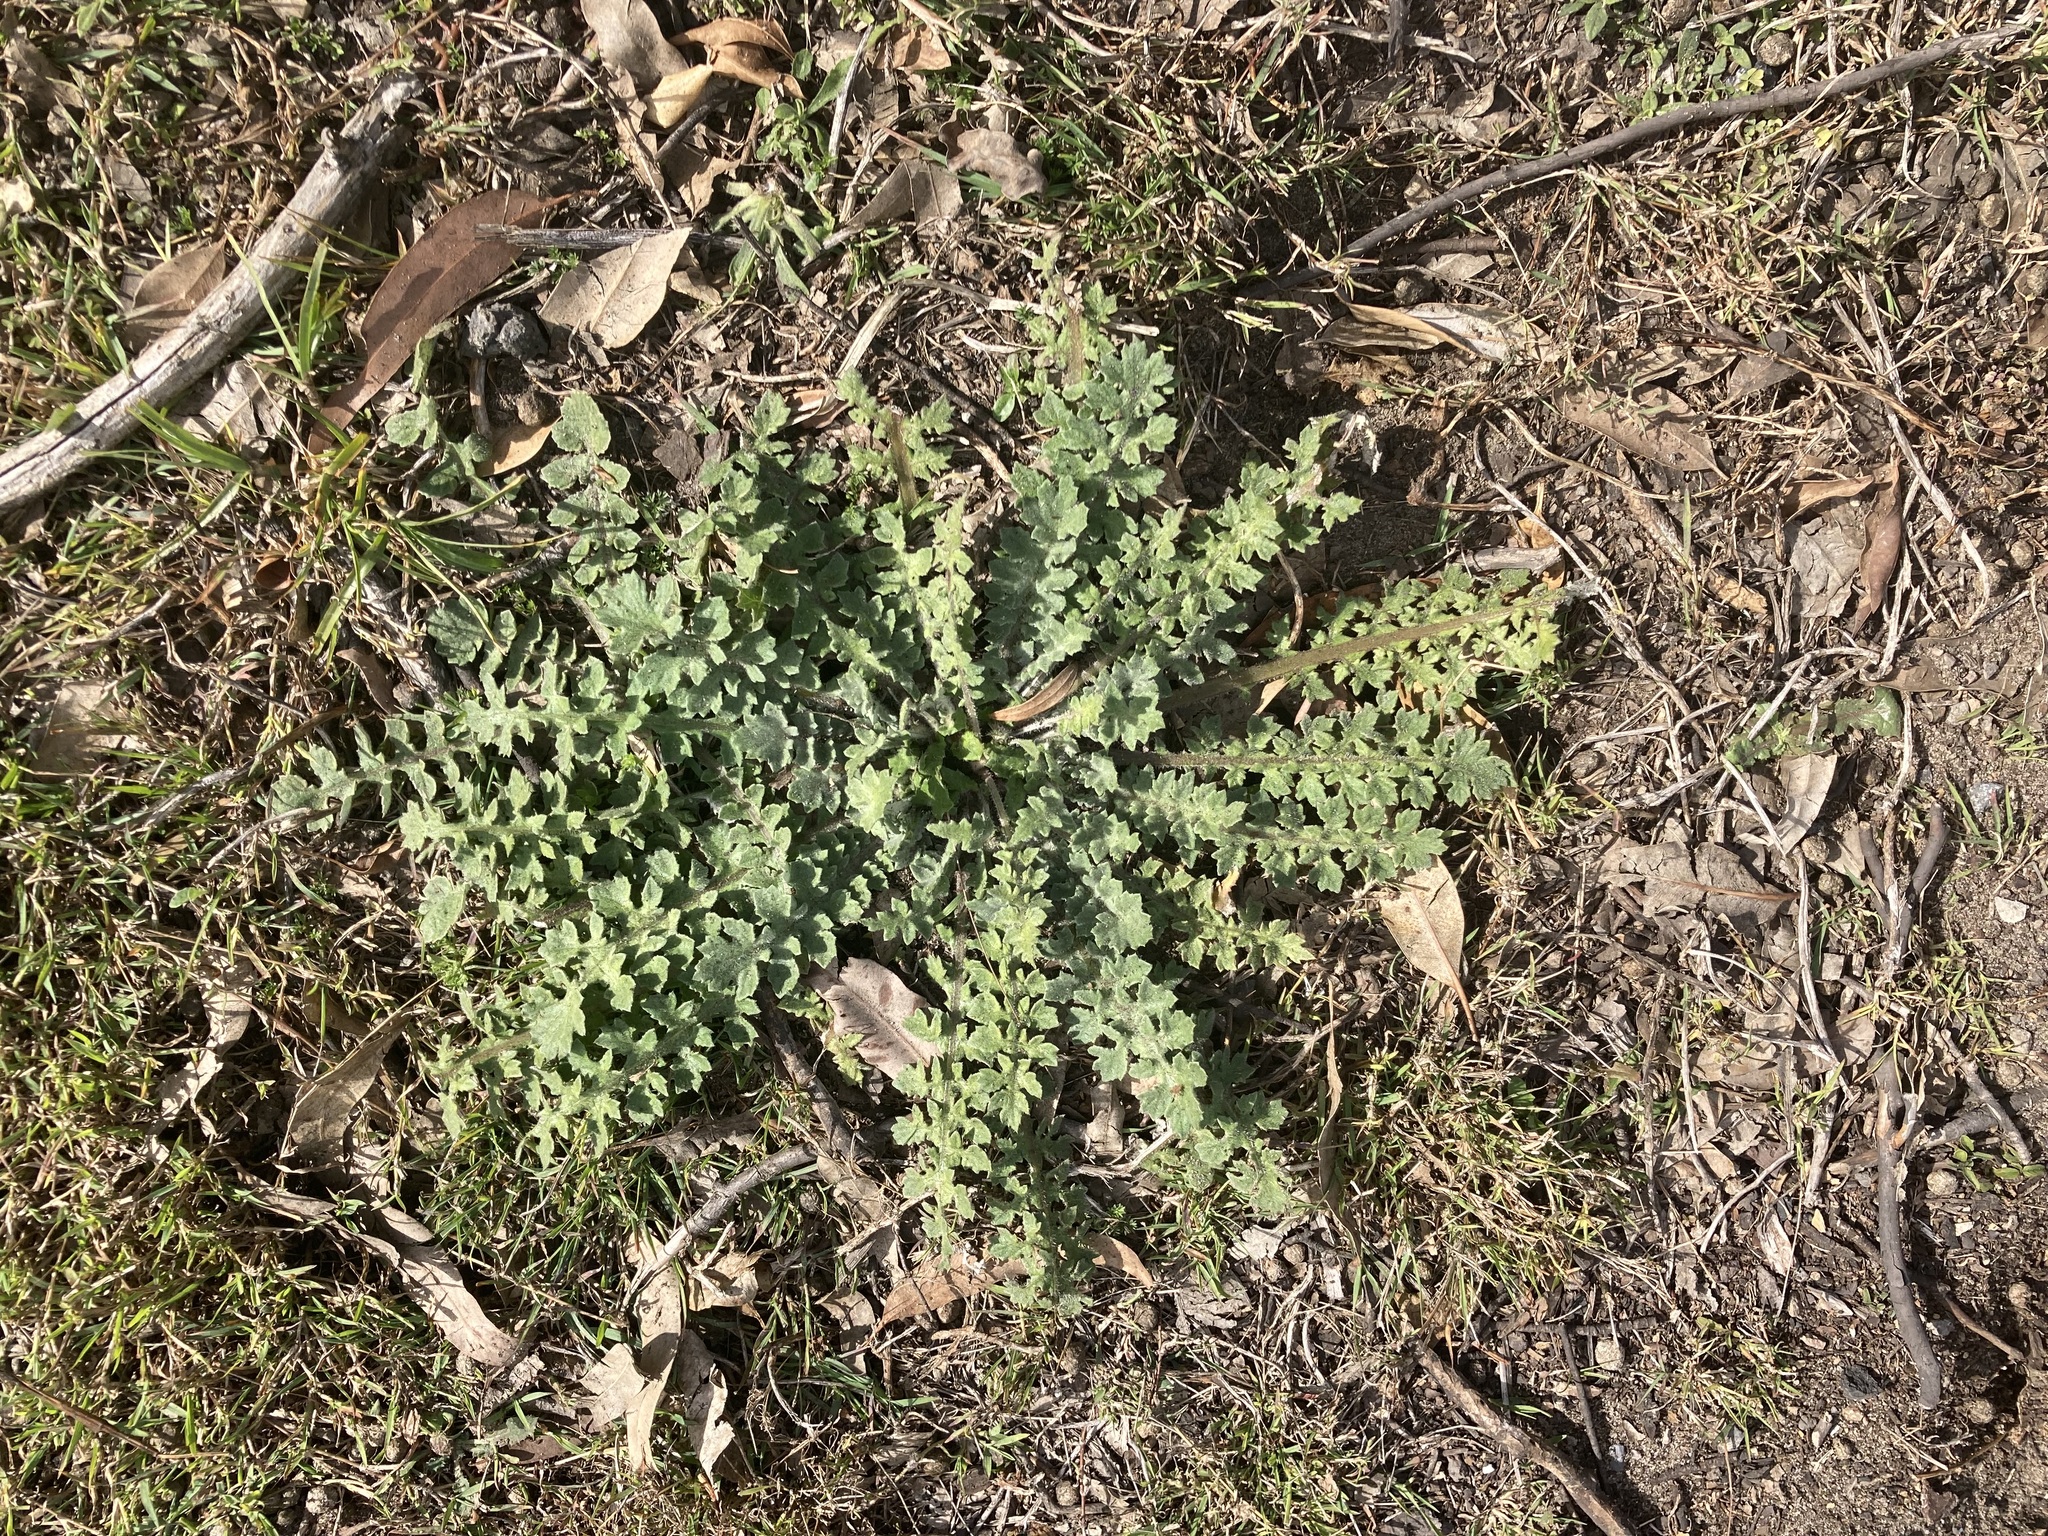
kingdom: Plantae
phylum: Tracheophyta
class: Magnoliopsida
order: Asterales
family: Asteraceae
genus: Arctotheca
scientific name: Arctotheca calendula
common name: Capeweed
